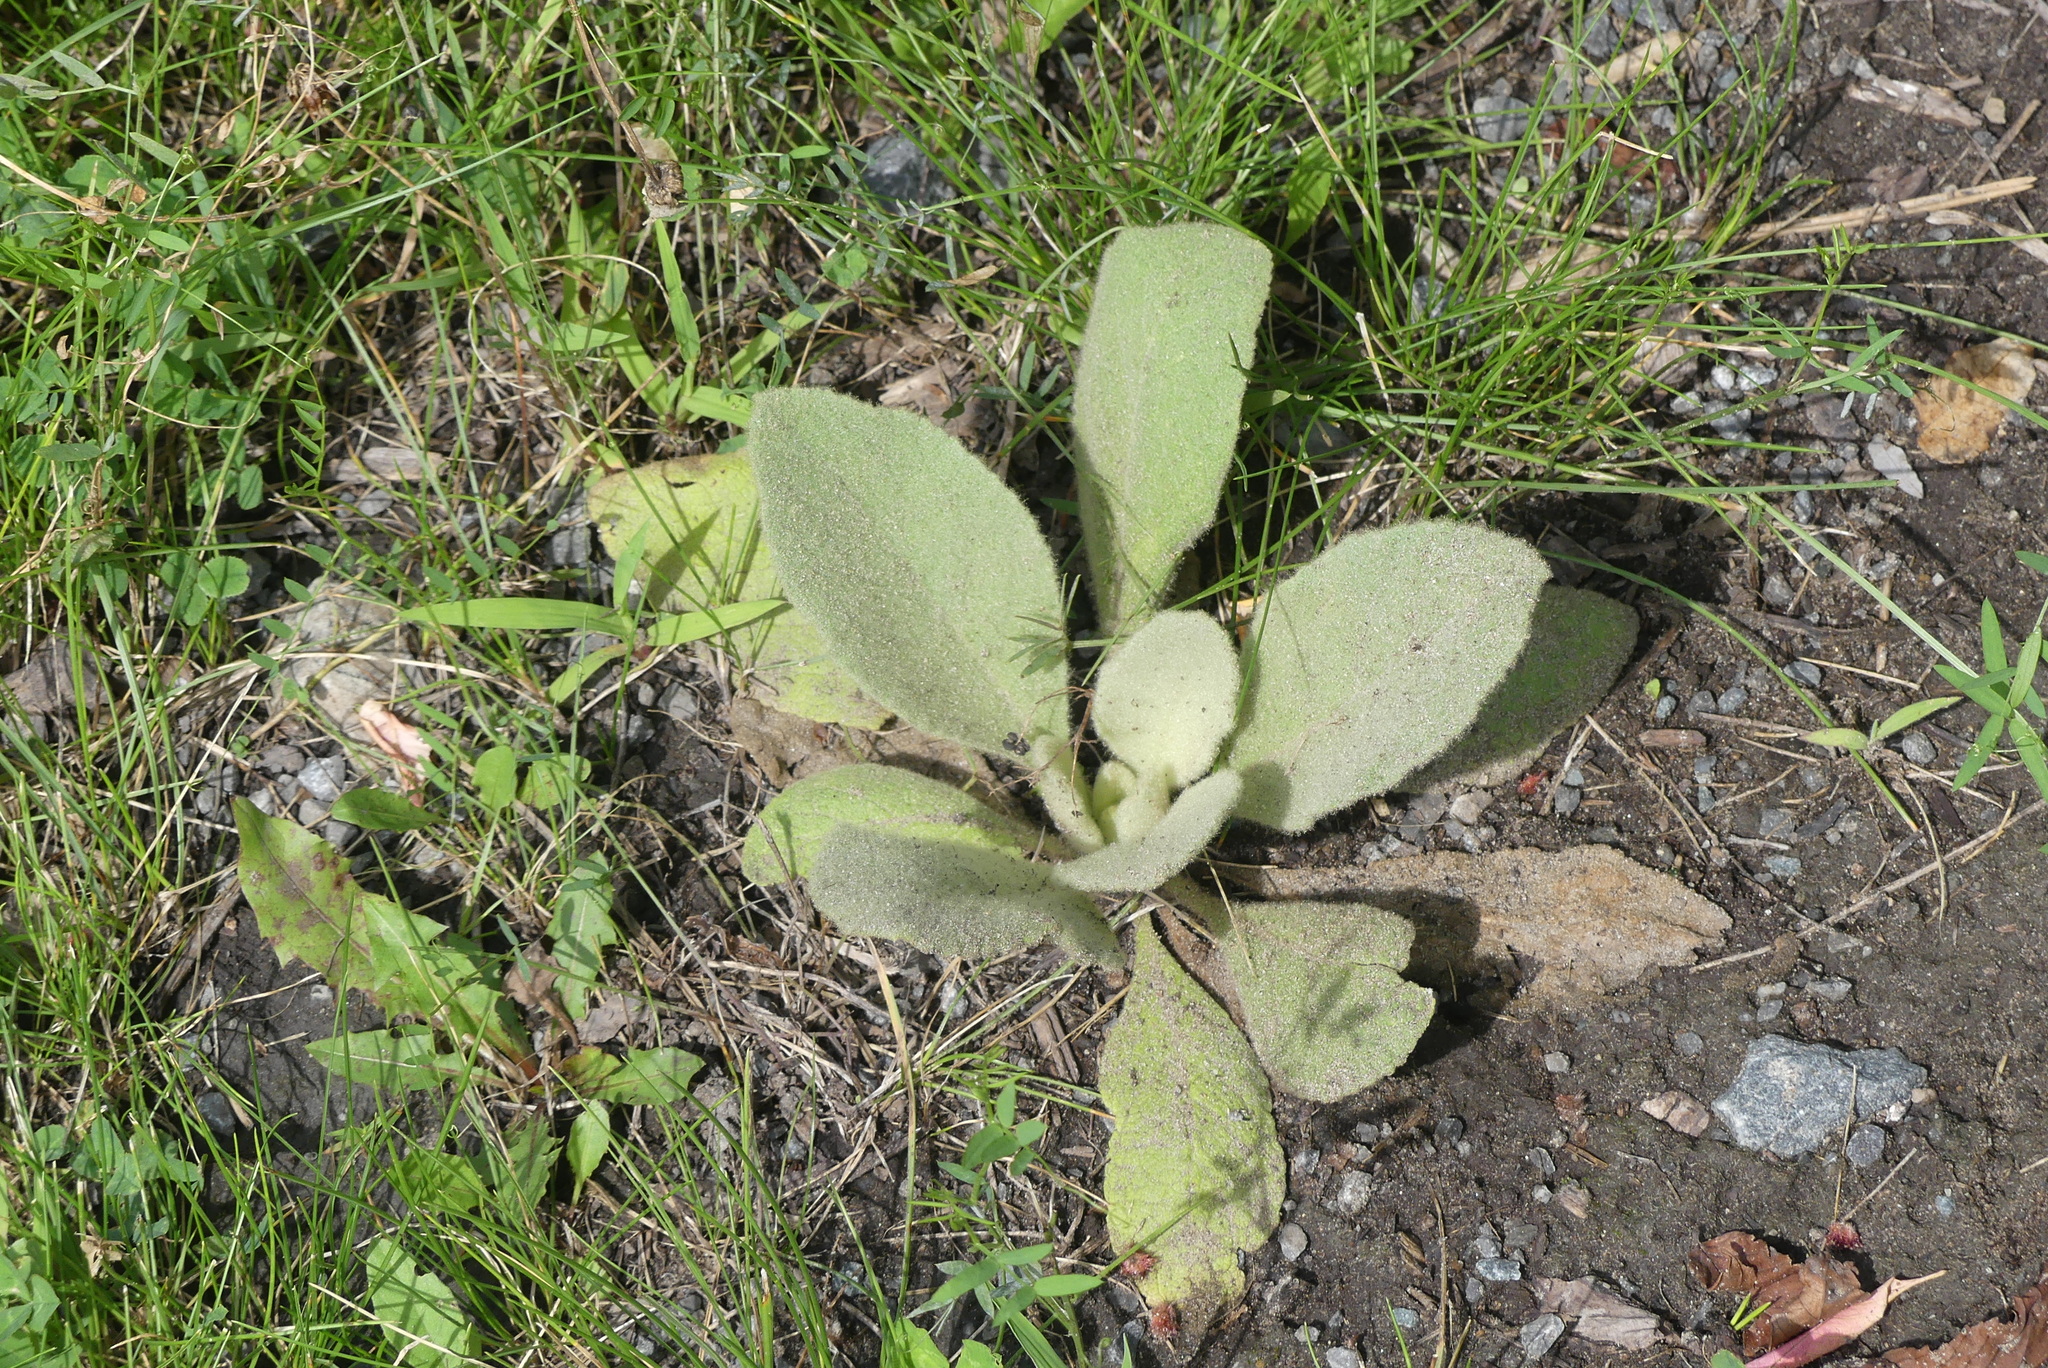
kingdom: Plantae
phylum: Tracheophyta
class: Magnoliopsida
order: Lamiales
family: Scrophulariaceae
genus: Verbascum
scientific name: Verbascum thapsus
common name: Common mullein
